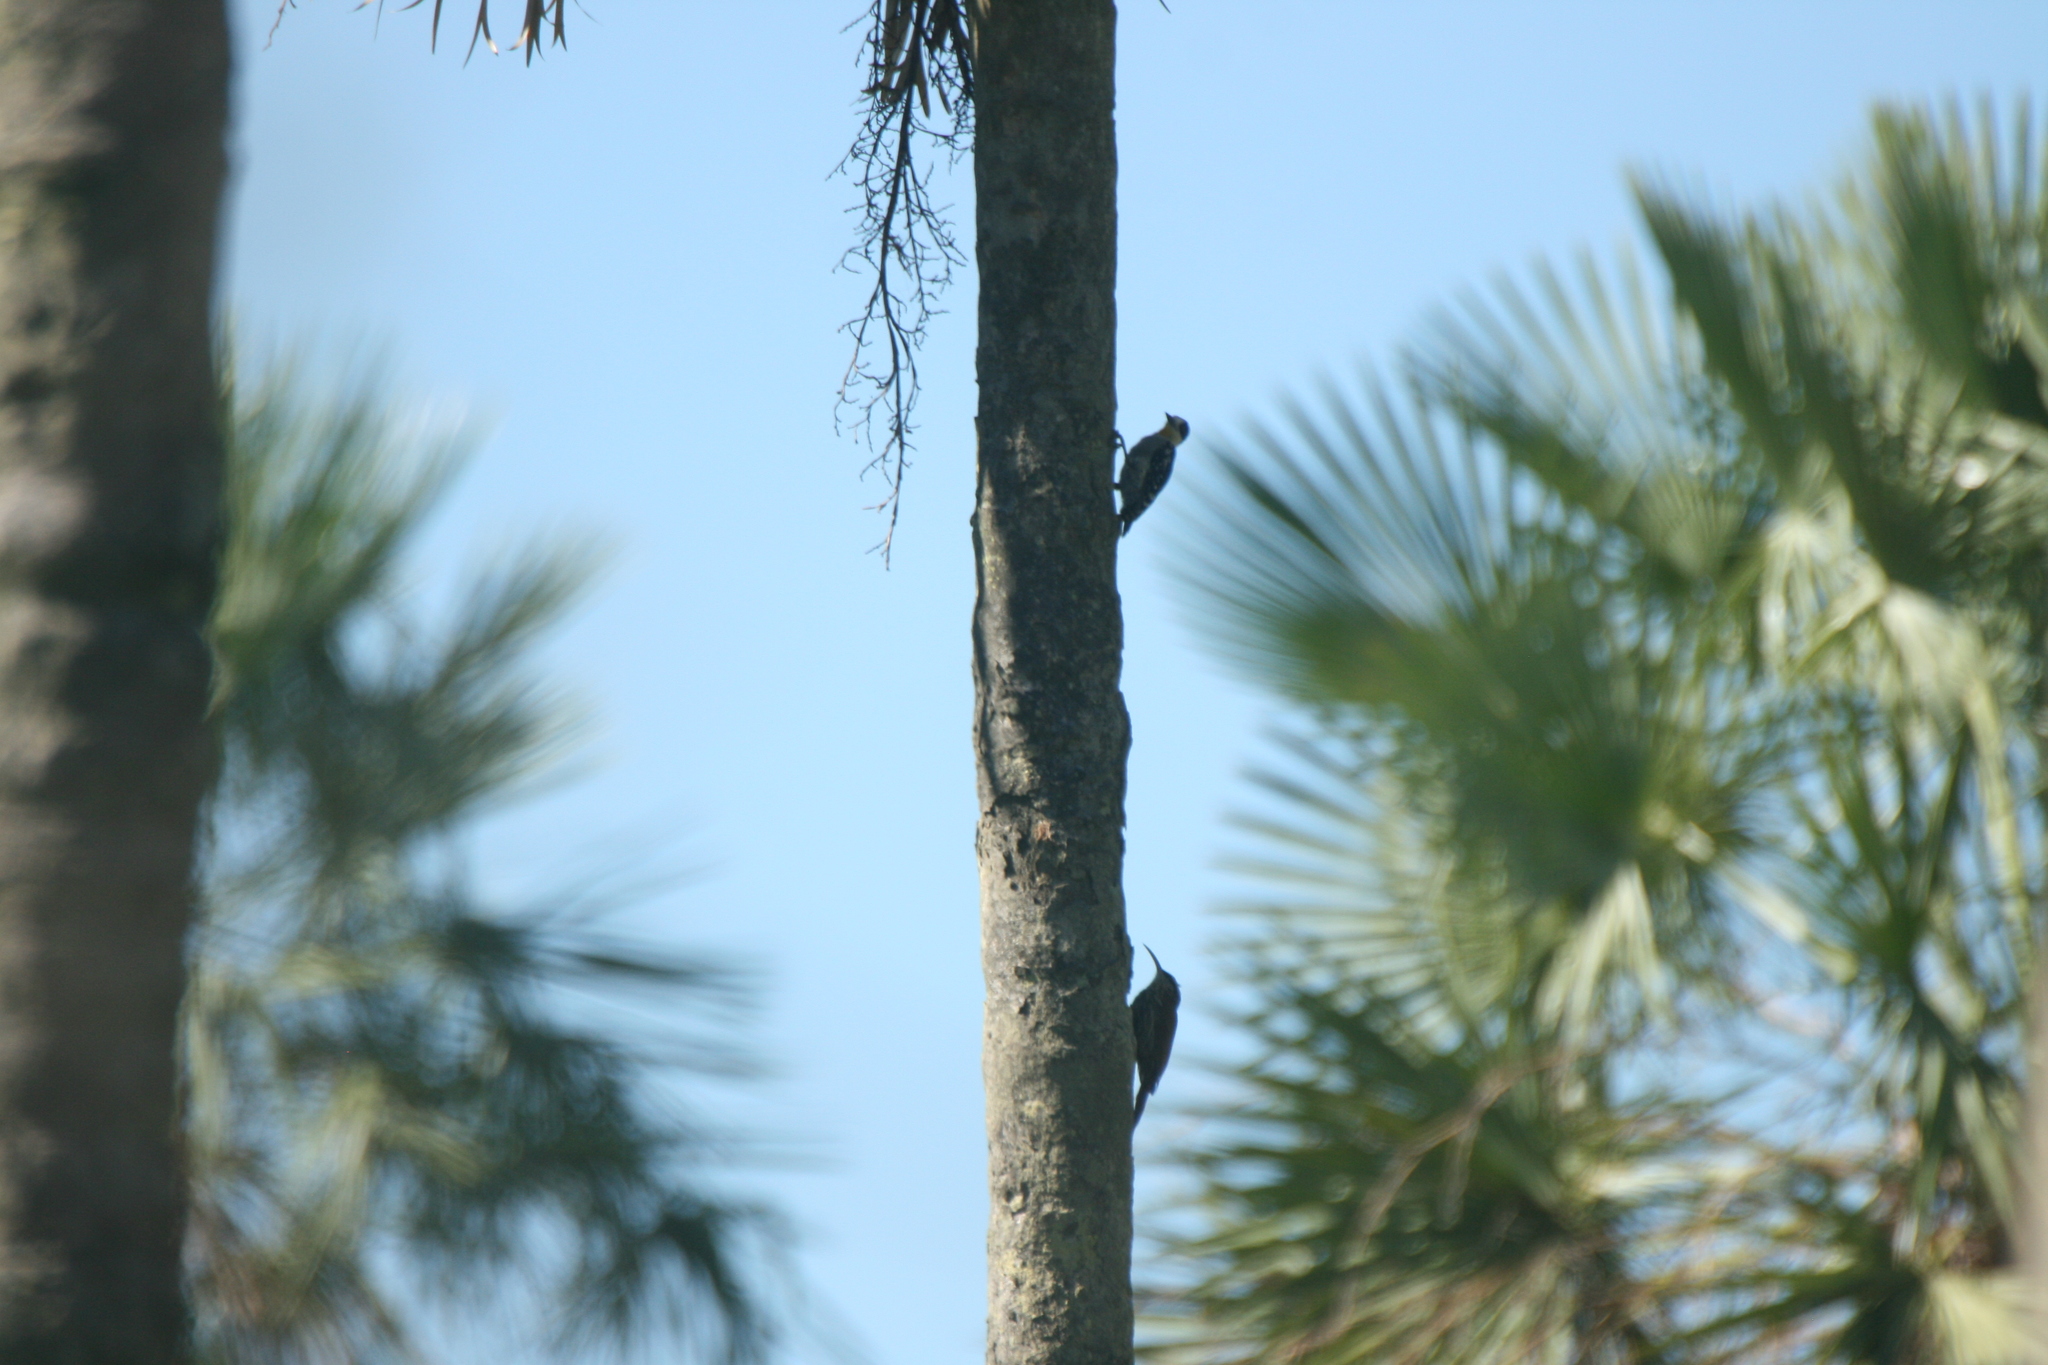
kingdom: Animalia
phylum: Chordata
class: Aves
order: Passeriformes
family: Furnariidae
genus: Lepidocolaptes
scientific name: Lepidocolaptes angustirostris
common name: Narrow-billed woodcreeper
